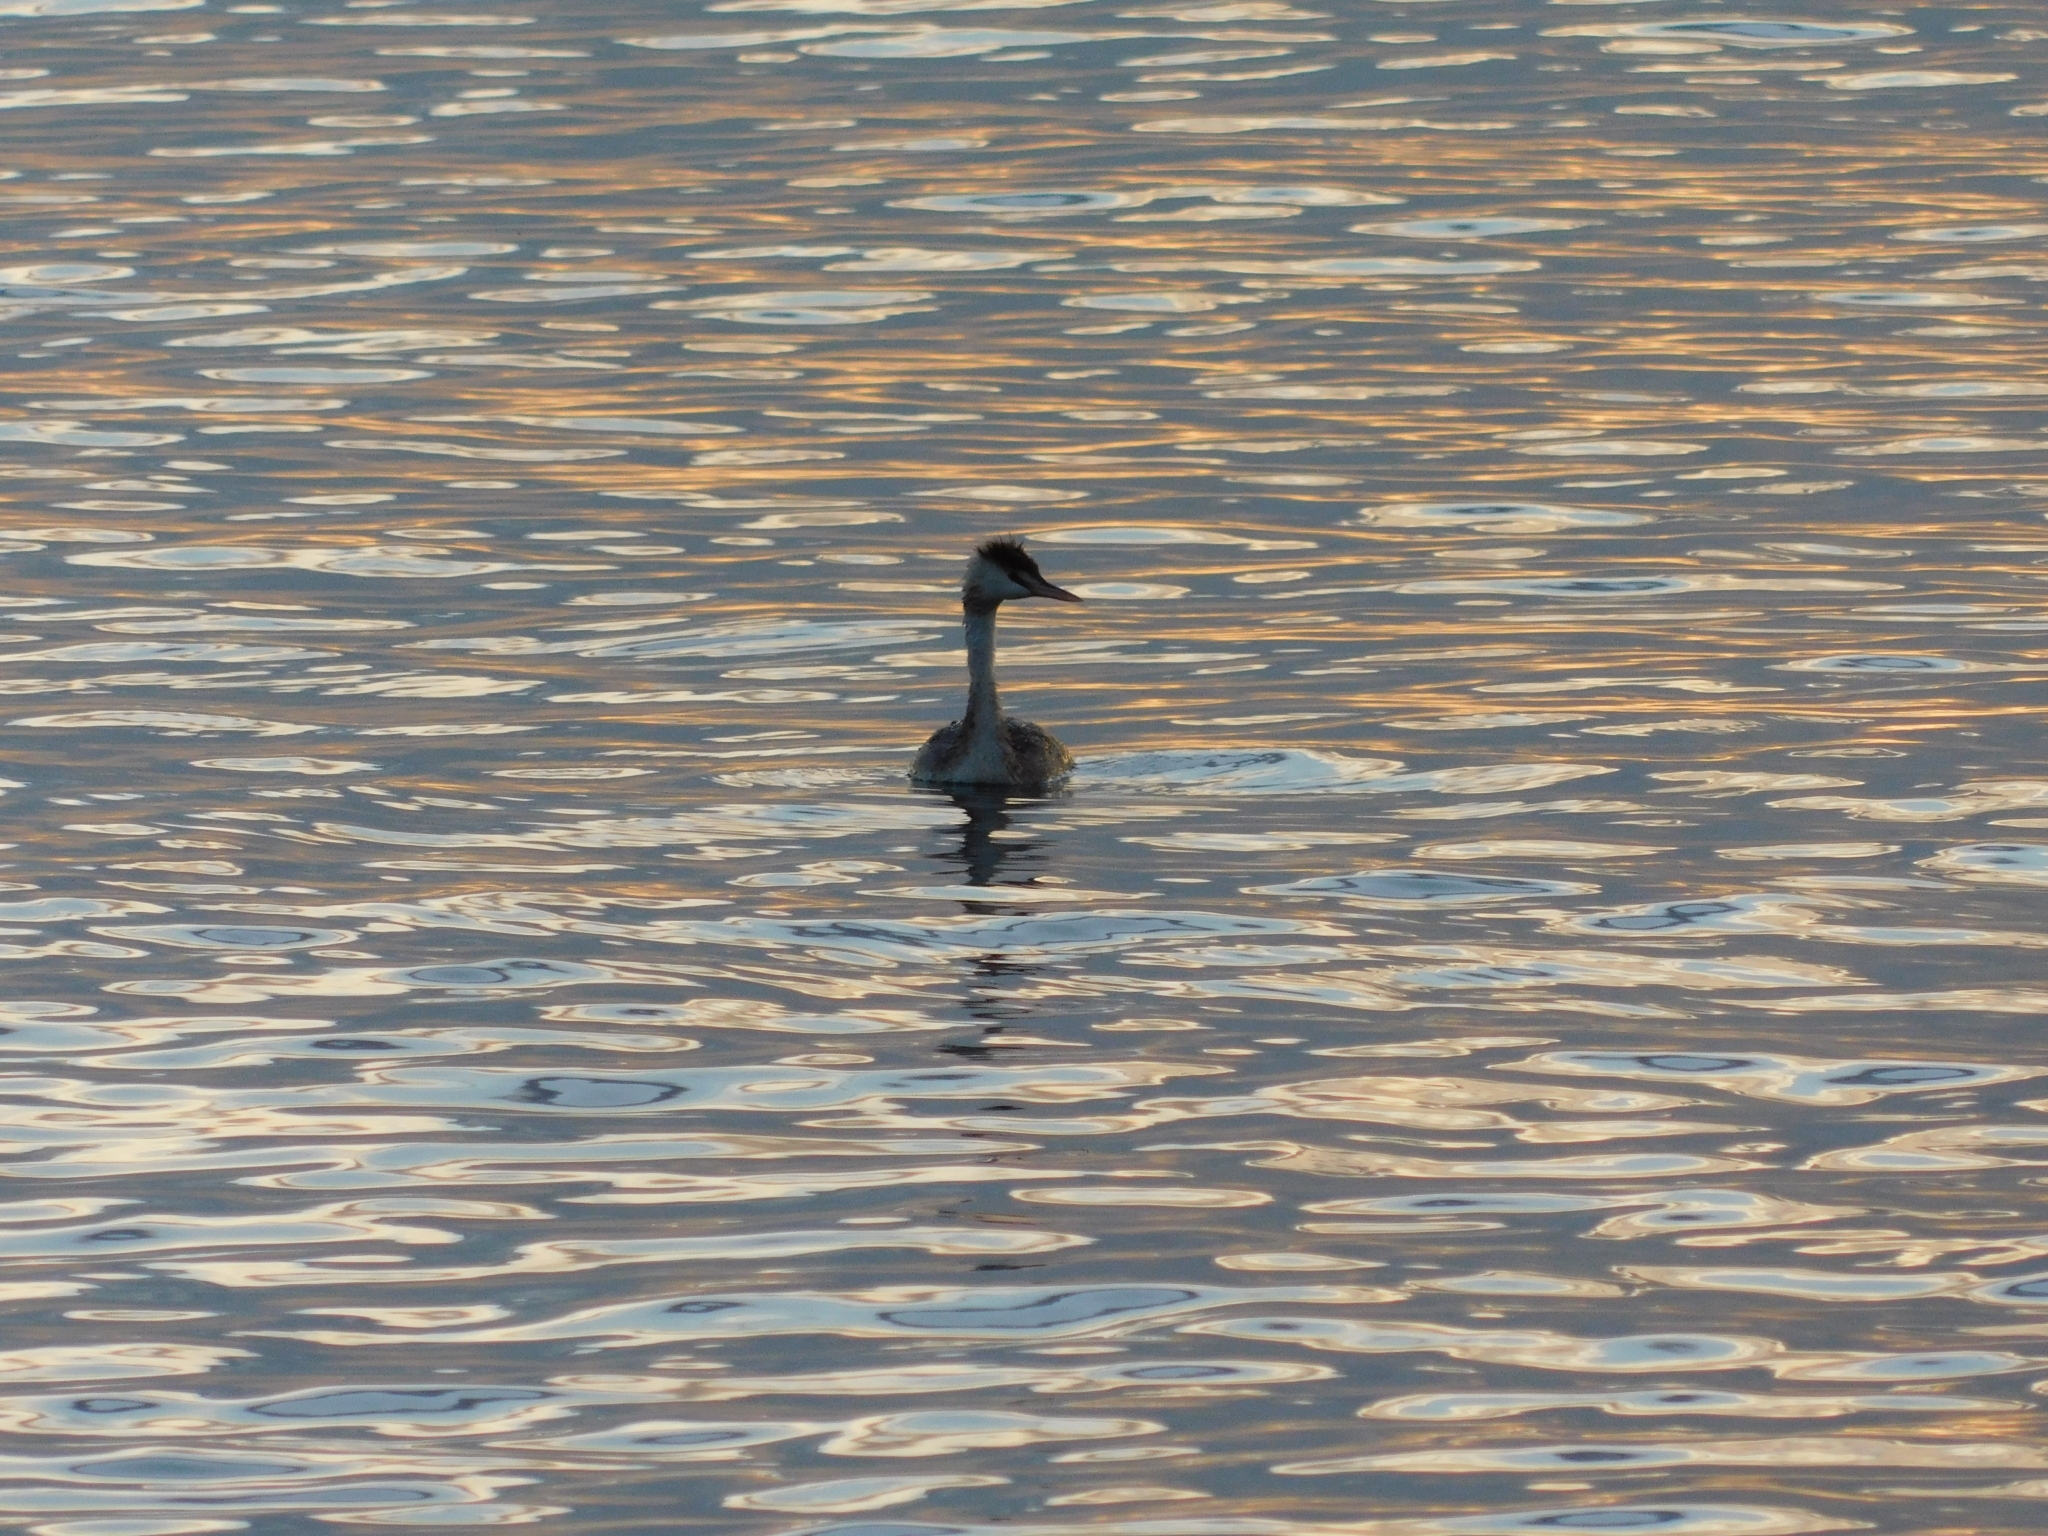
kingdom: Animalia
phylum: Chordata
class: Aves
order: Podicipediformes
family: Podicipedidae
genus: Podiceps
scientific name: Podiceps cristatus
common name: Great crested grebe
